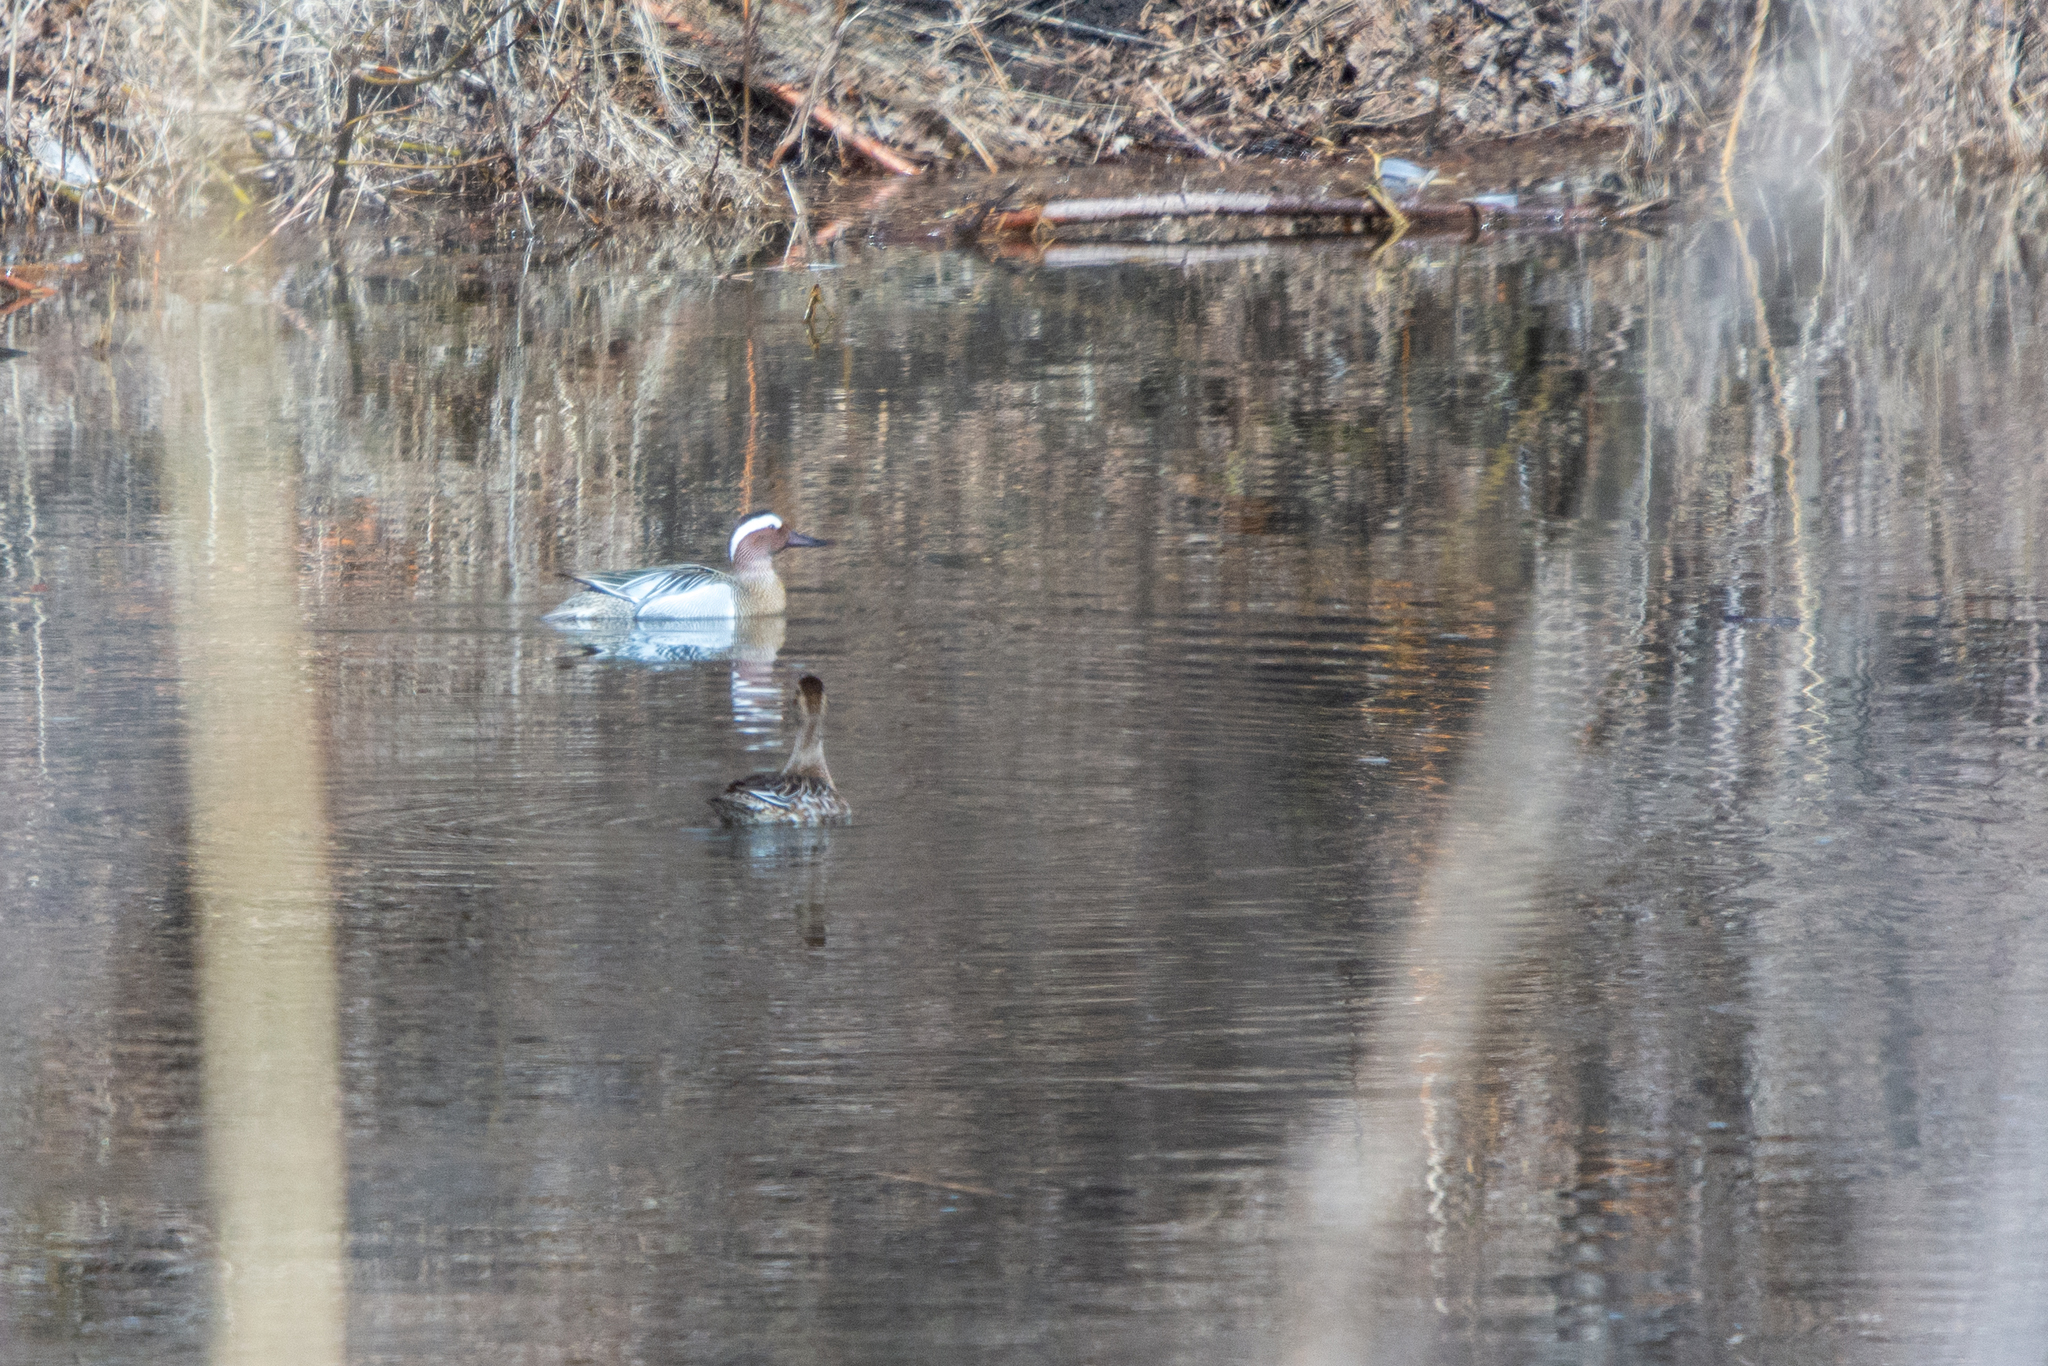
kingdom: Animalia
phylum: Chordata
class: Aves
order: Anseriformes
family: Anatidae
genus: Spatula
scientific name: Spatula querquedula
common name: Garganey
